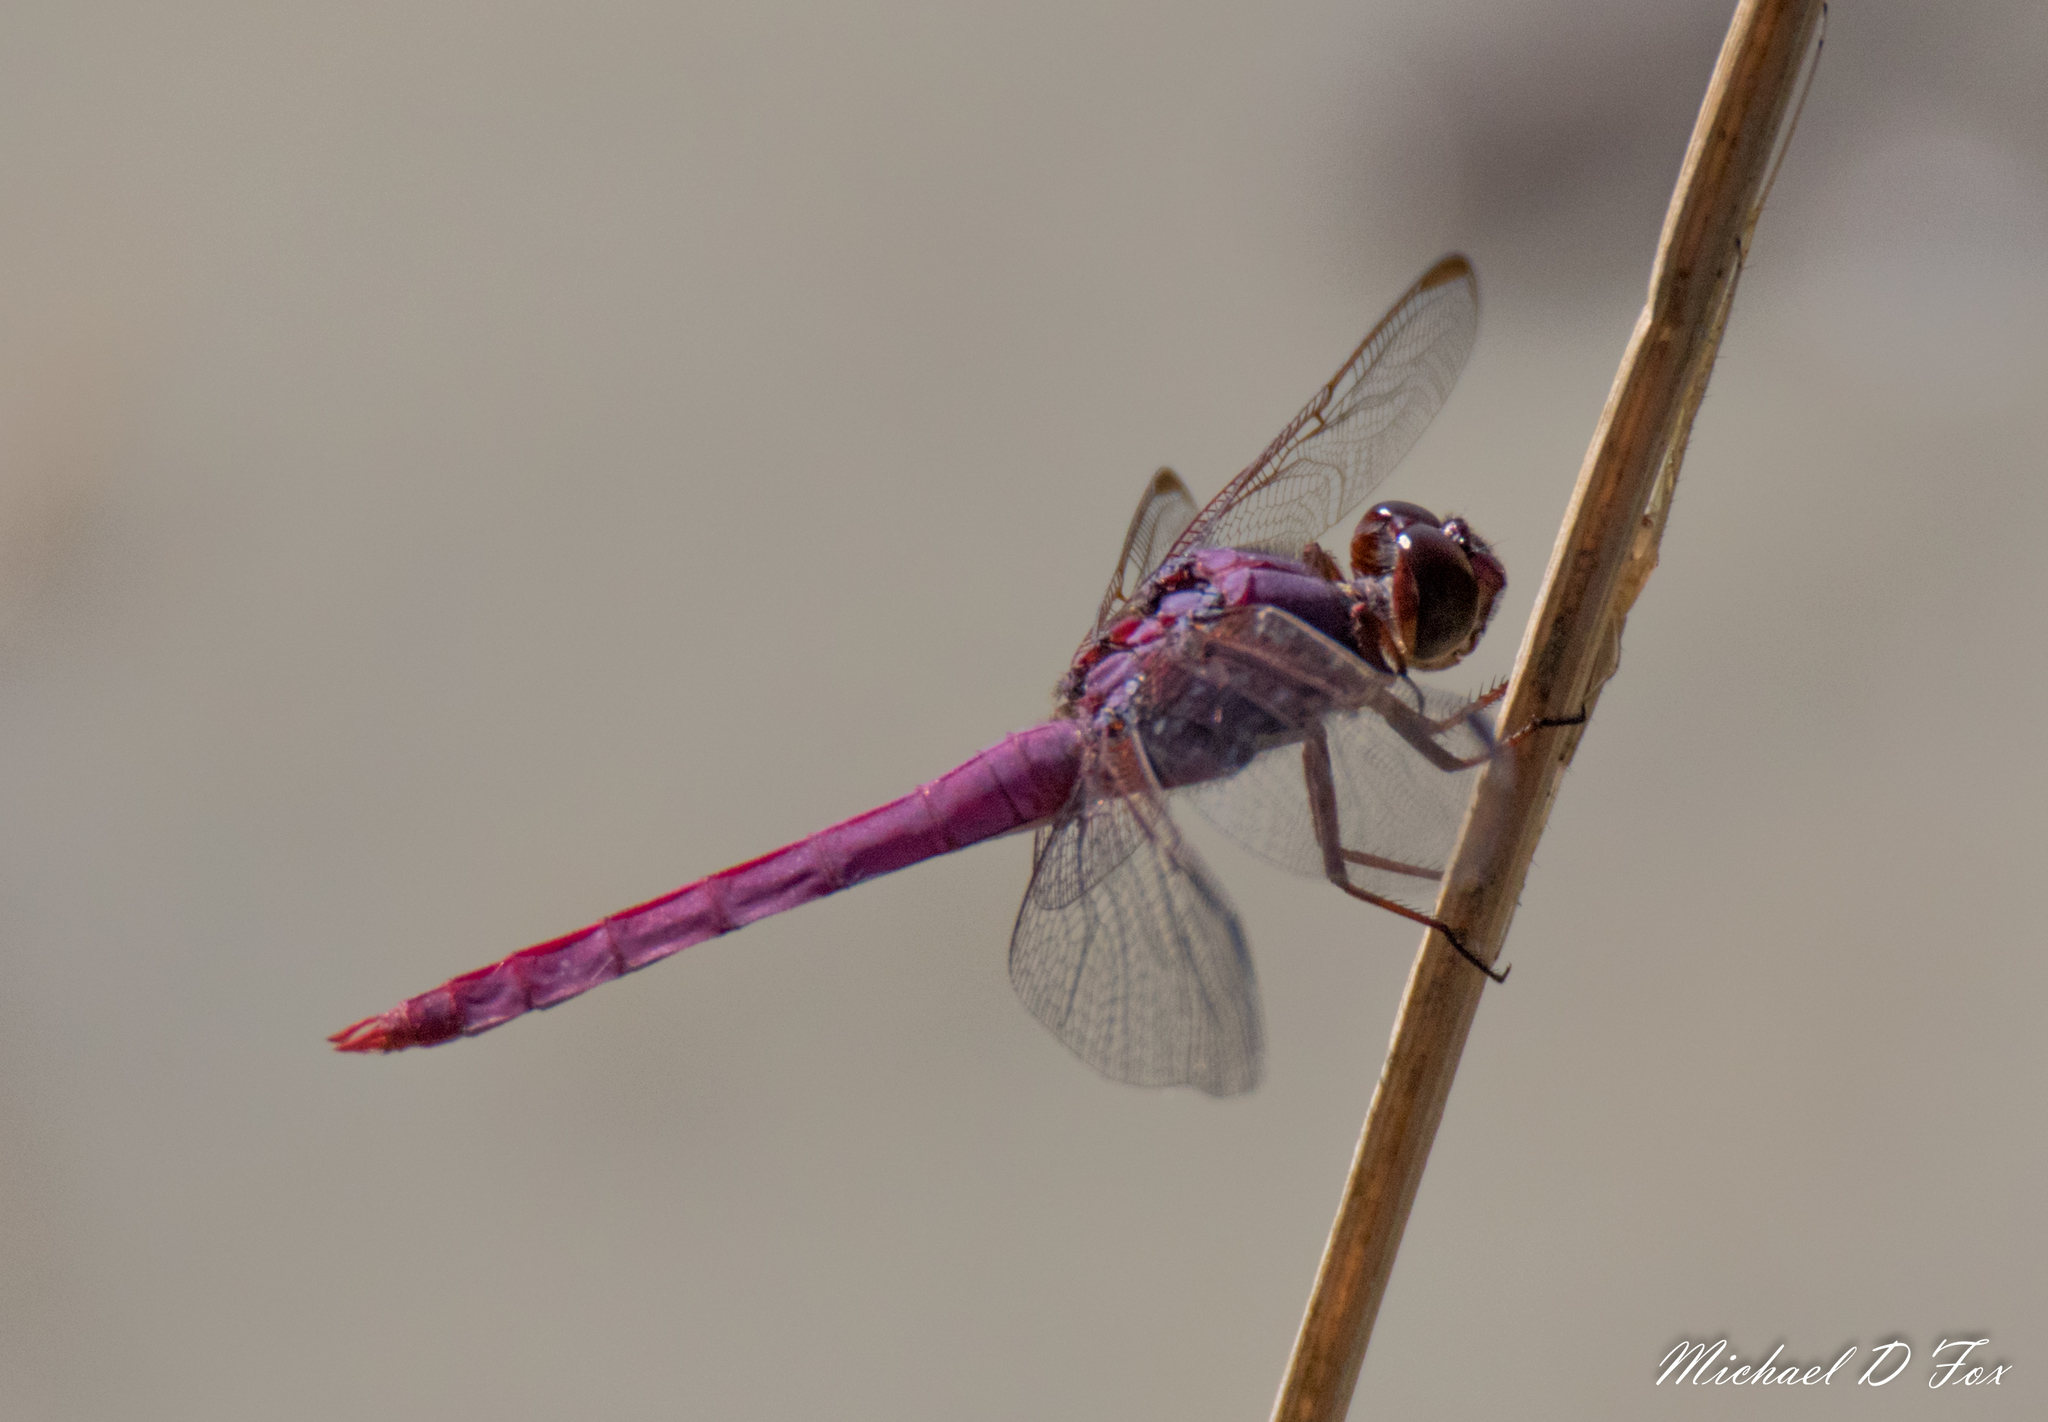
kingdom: Animalia
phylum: Arthropoda
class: Insecta
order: Odonata
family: Libellulidae
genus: Orthemis
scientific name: Orthemis ferruginea
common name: Roseate skimmer
